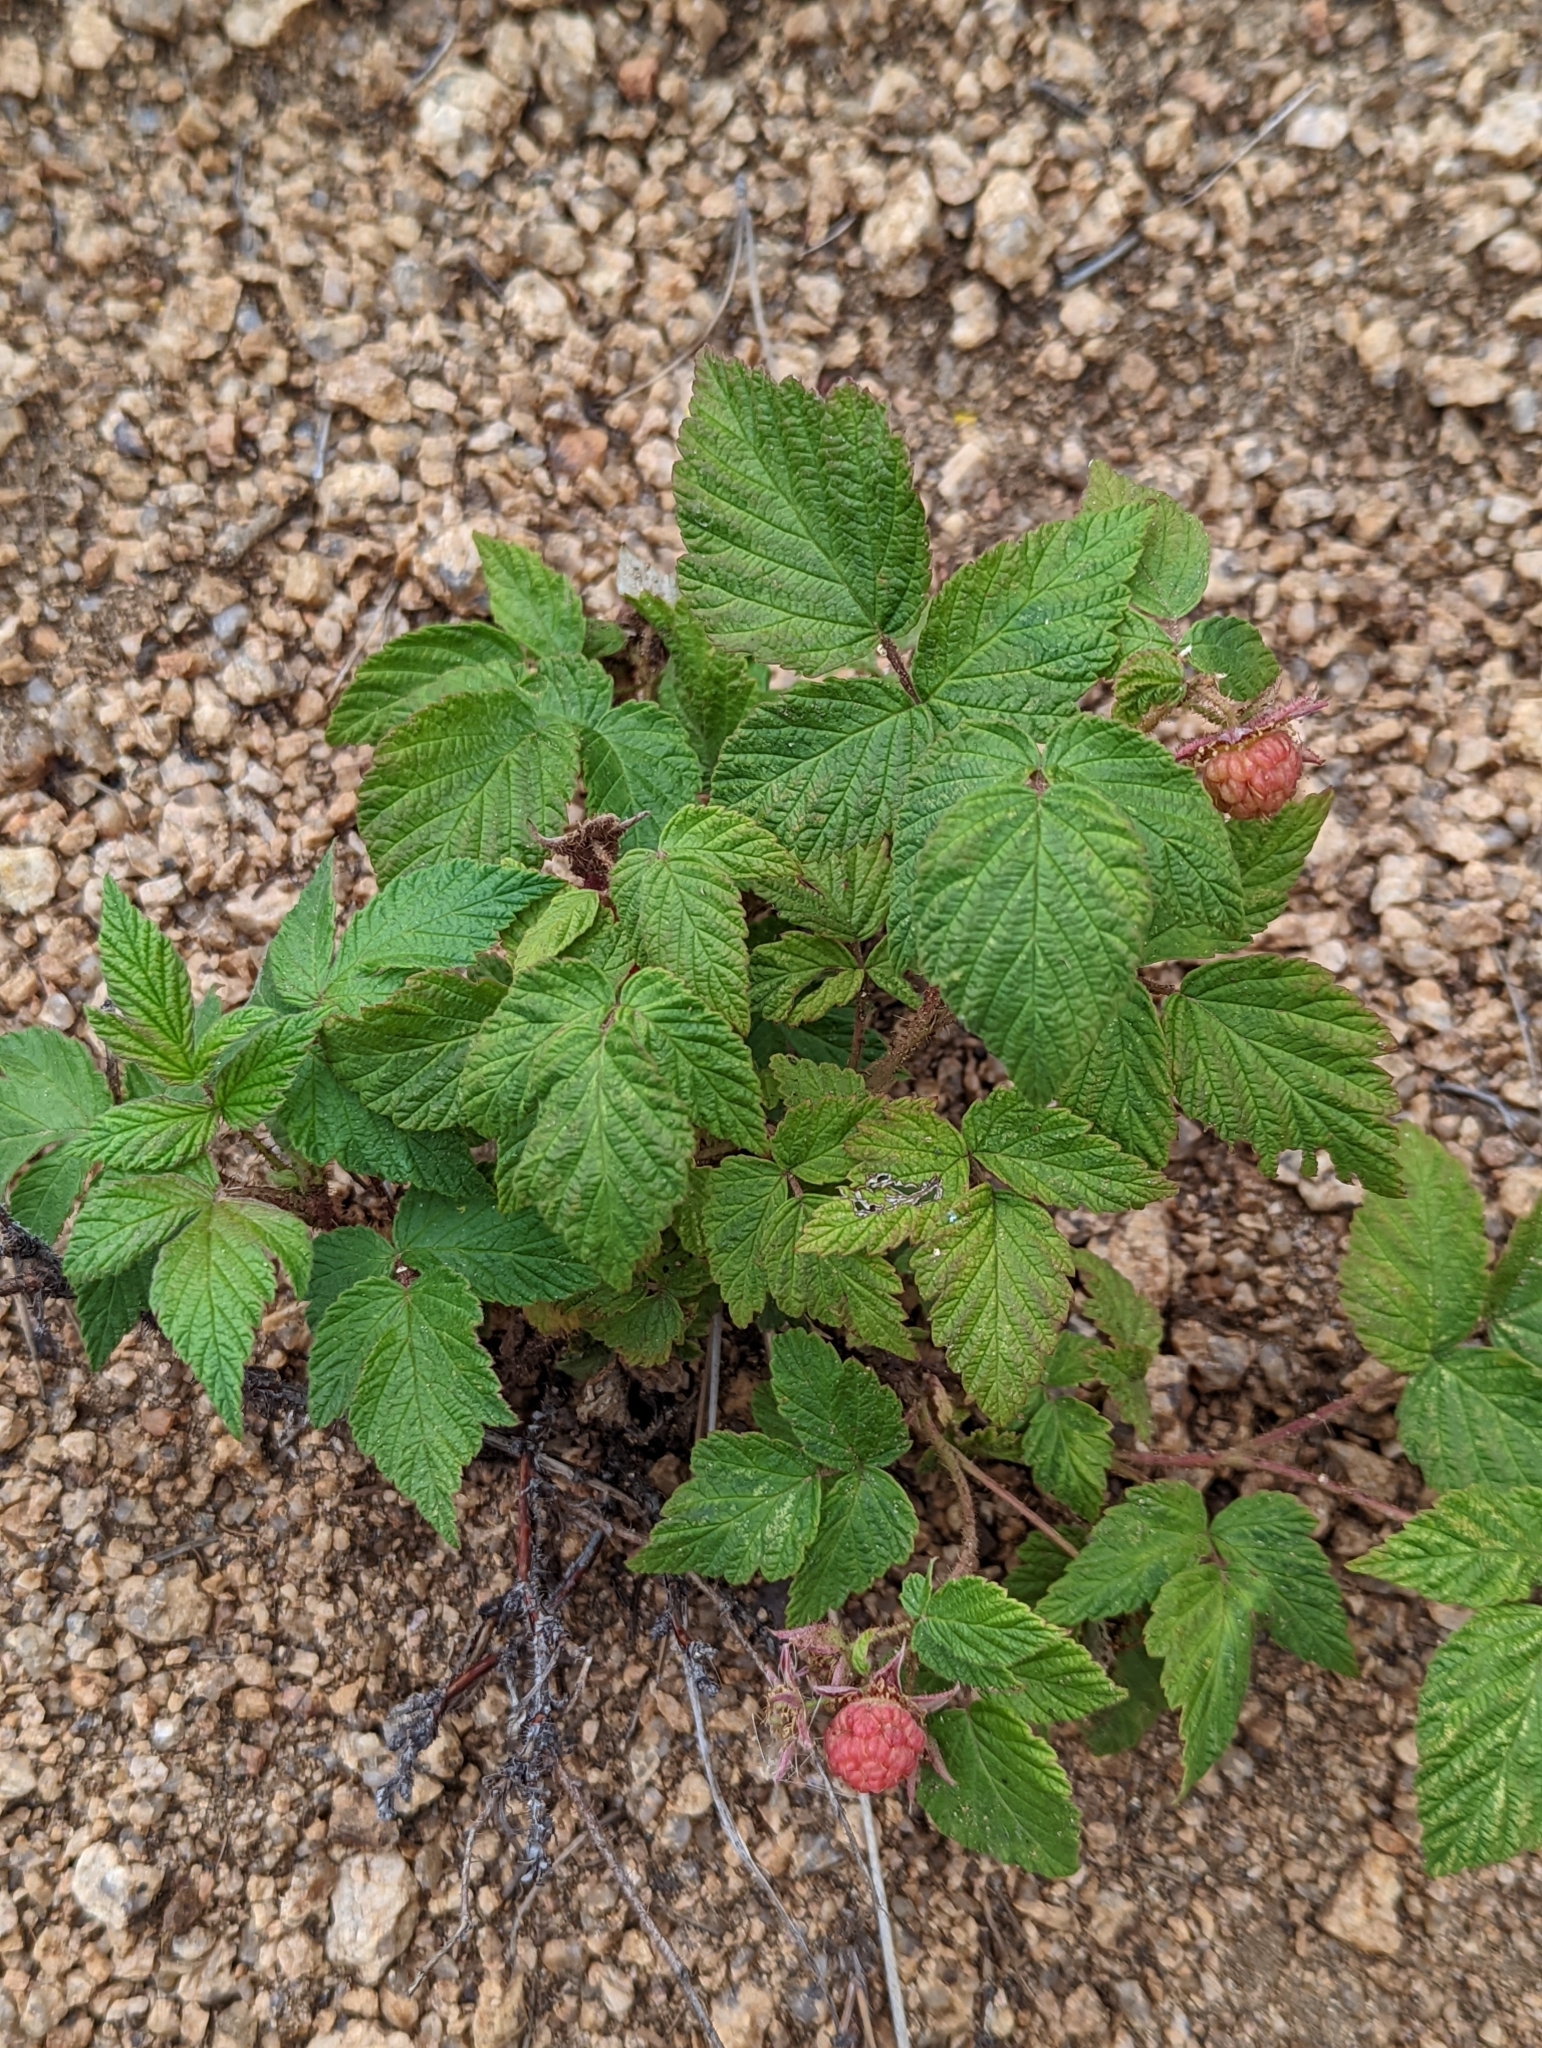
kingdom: Plantae
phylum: Tracheophyta
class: Magnoliopsida
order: Rosales
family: Rosaceae
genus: Rubus
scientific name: Rubus idaeus
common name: Raspberry
